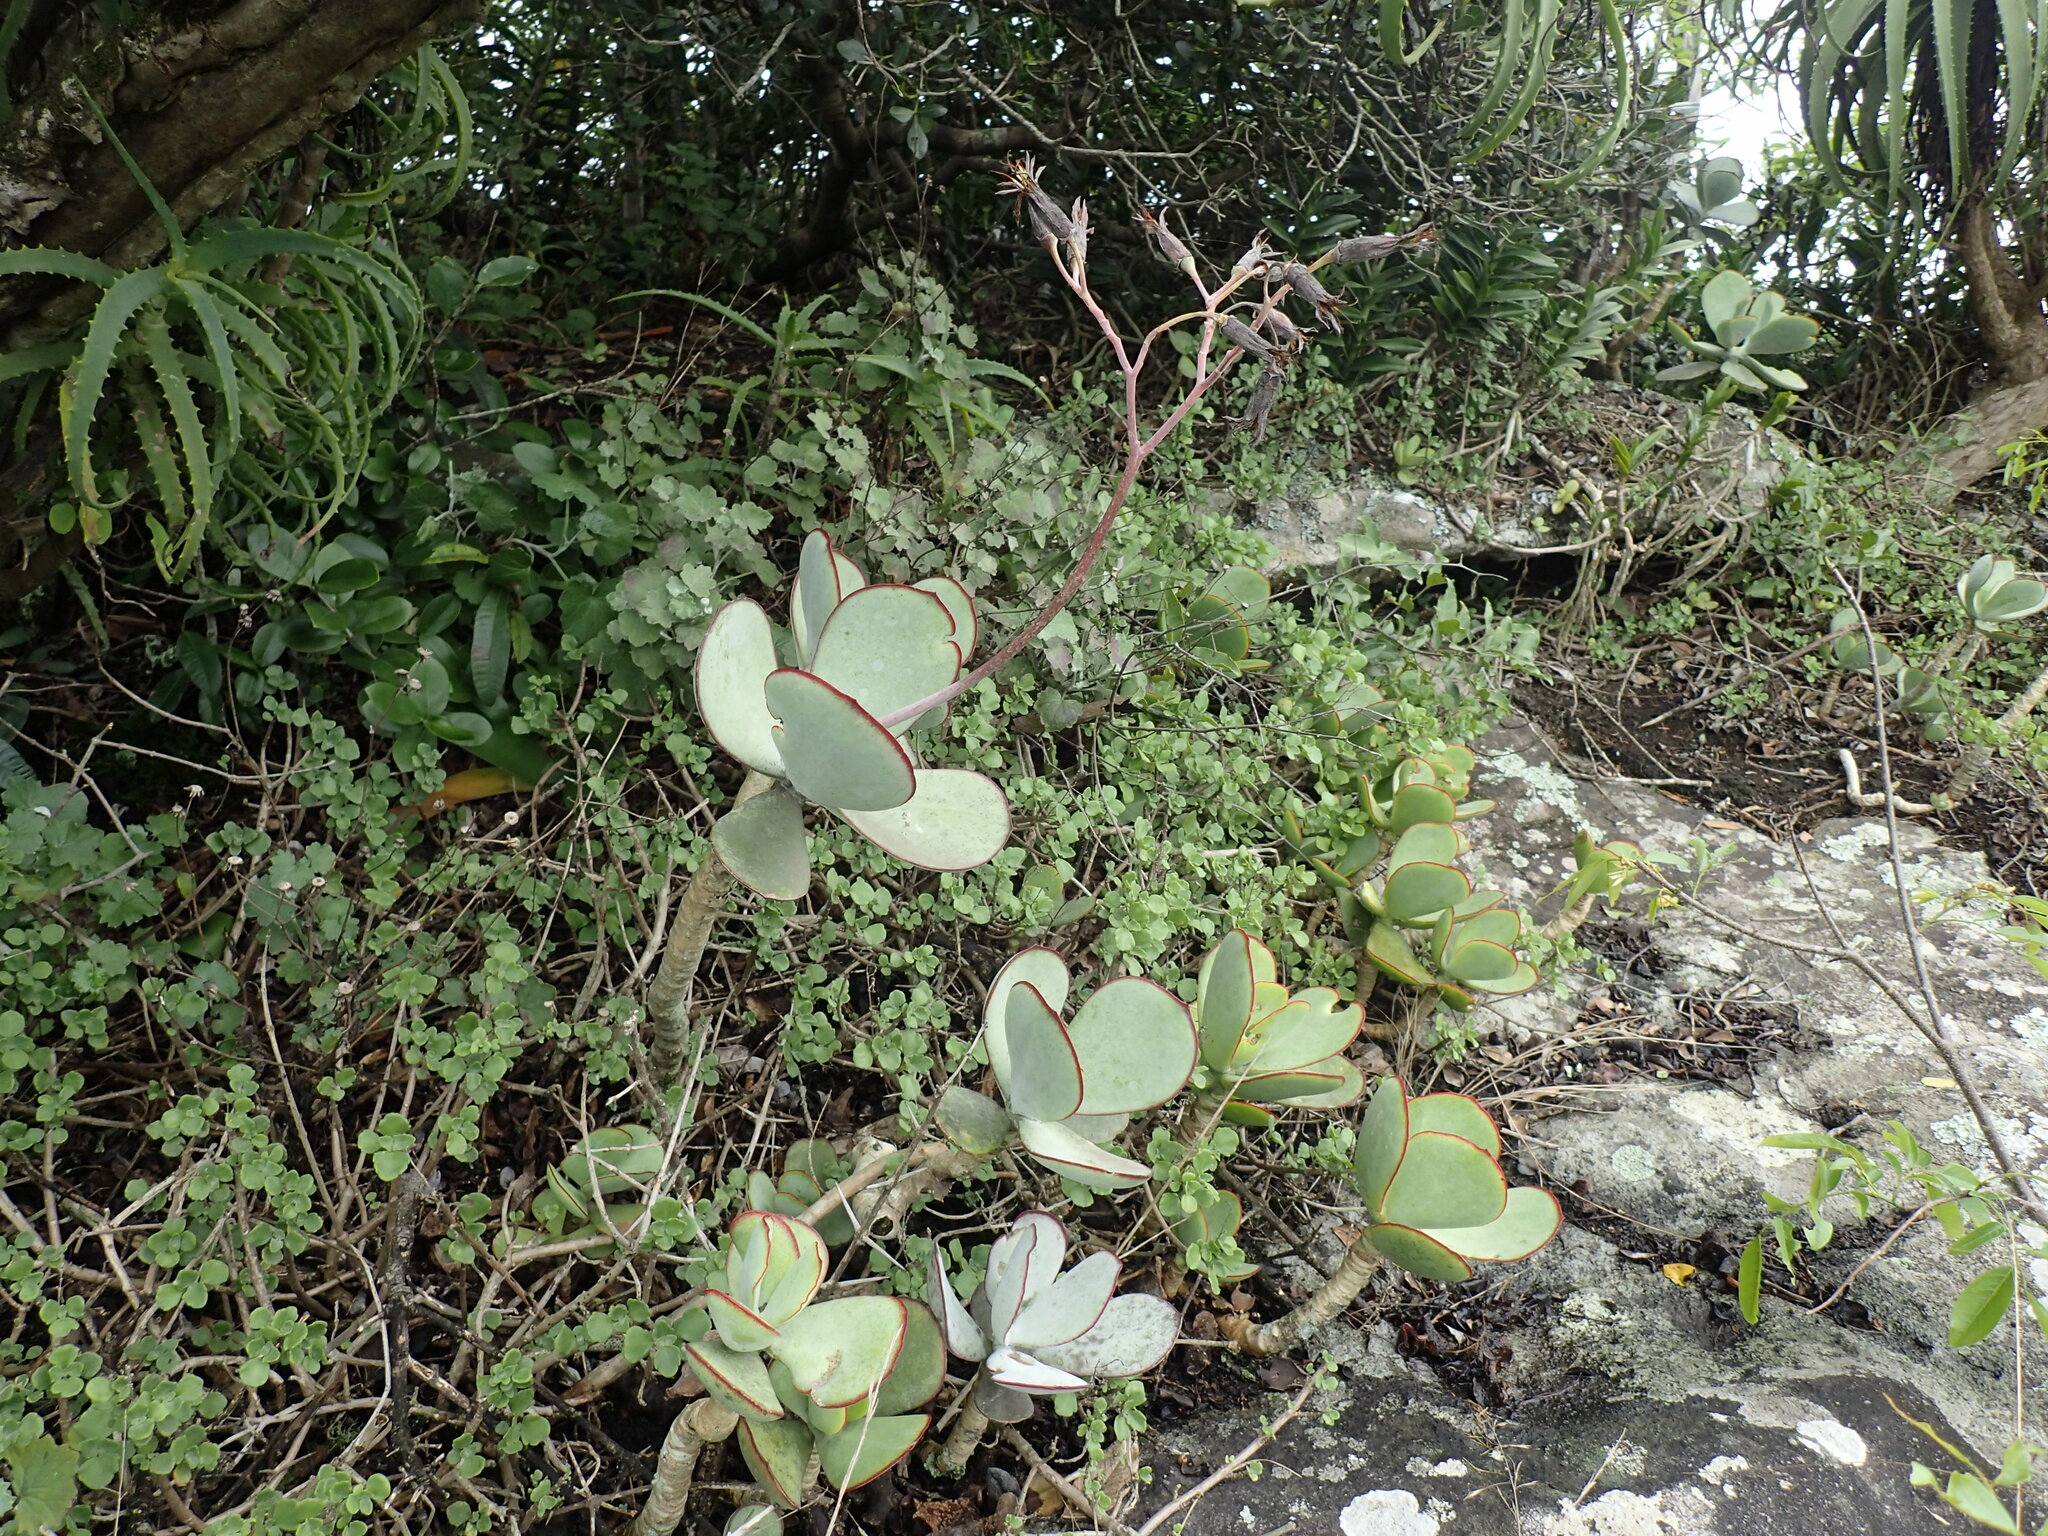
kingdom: Plantae
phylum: Tracheophyta
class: Magnoliopsida
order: Saxifragales
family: Crassulaceae
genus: Cotyledon
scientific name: Cotyledon orbiculata
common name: Pig's ear
